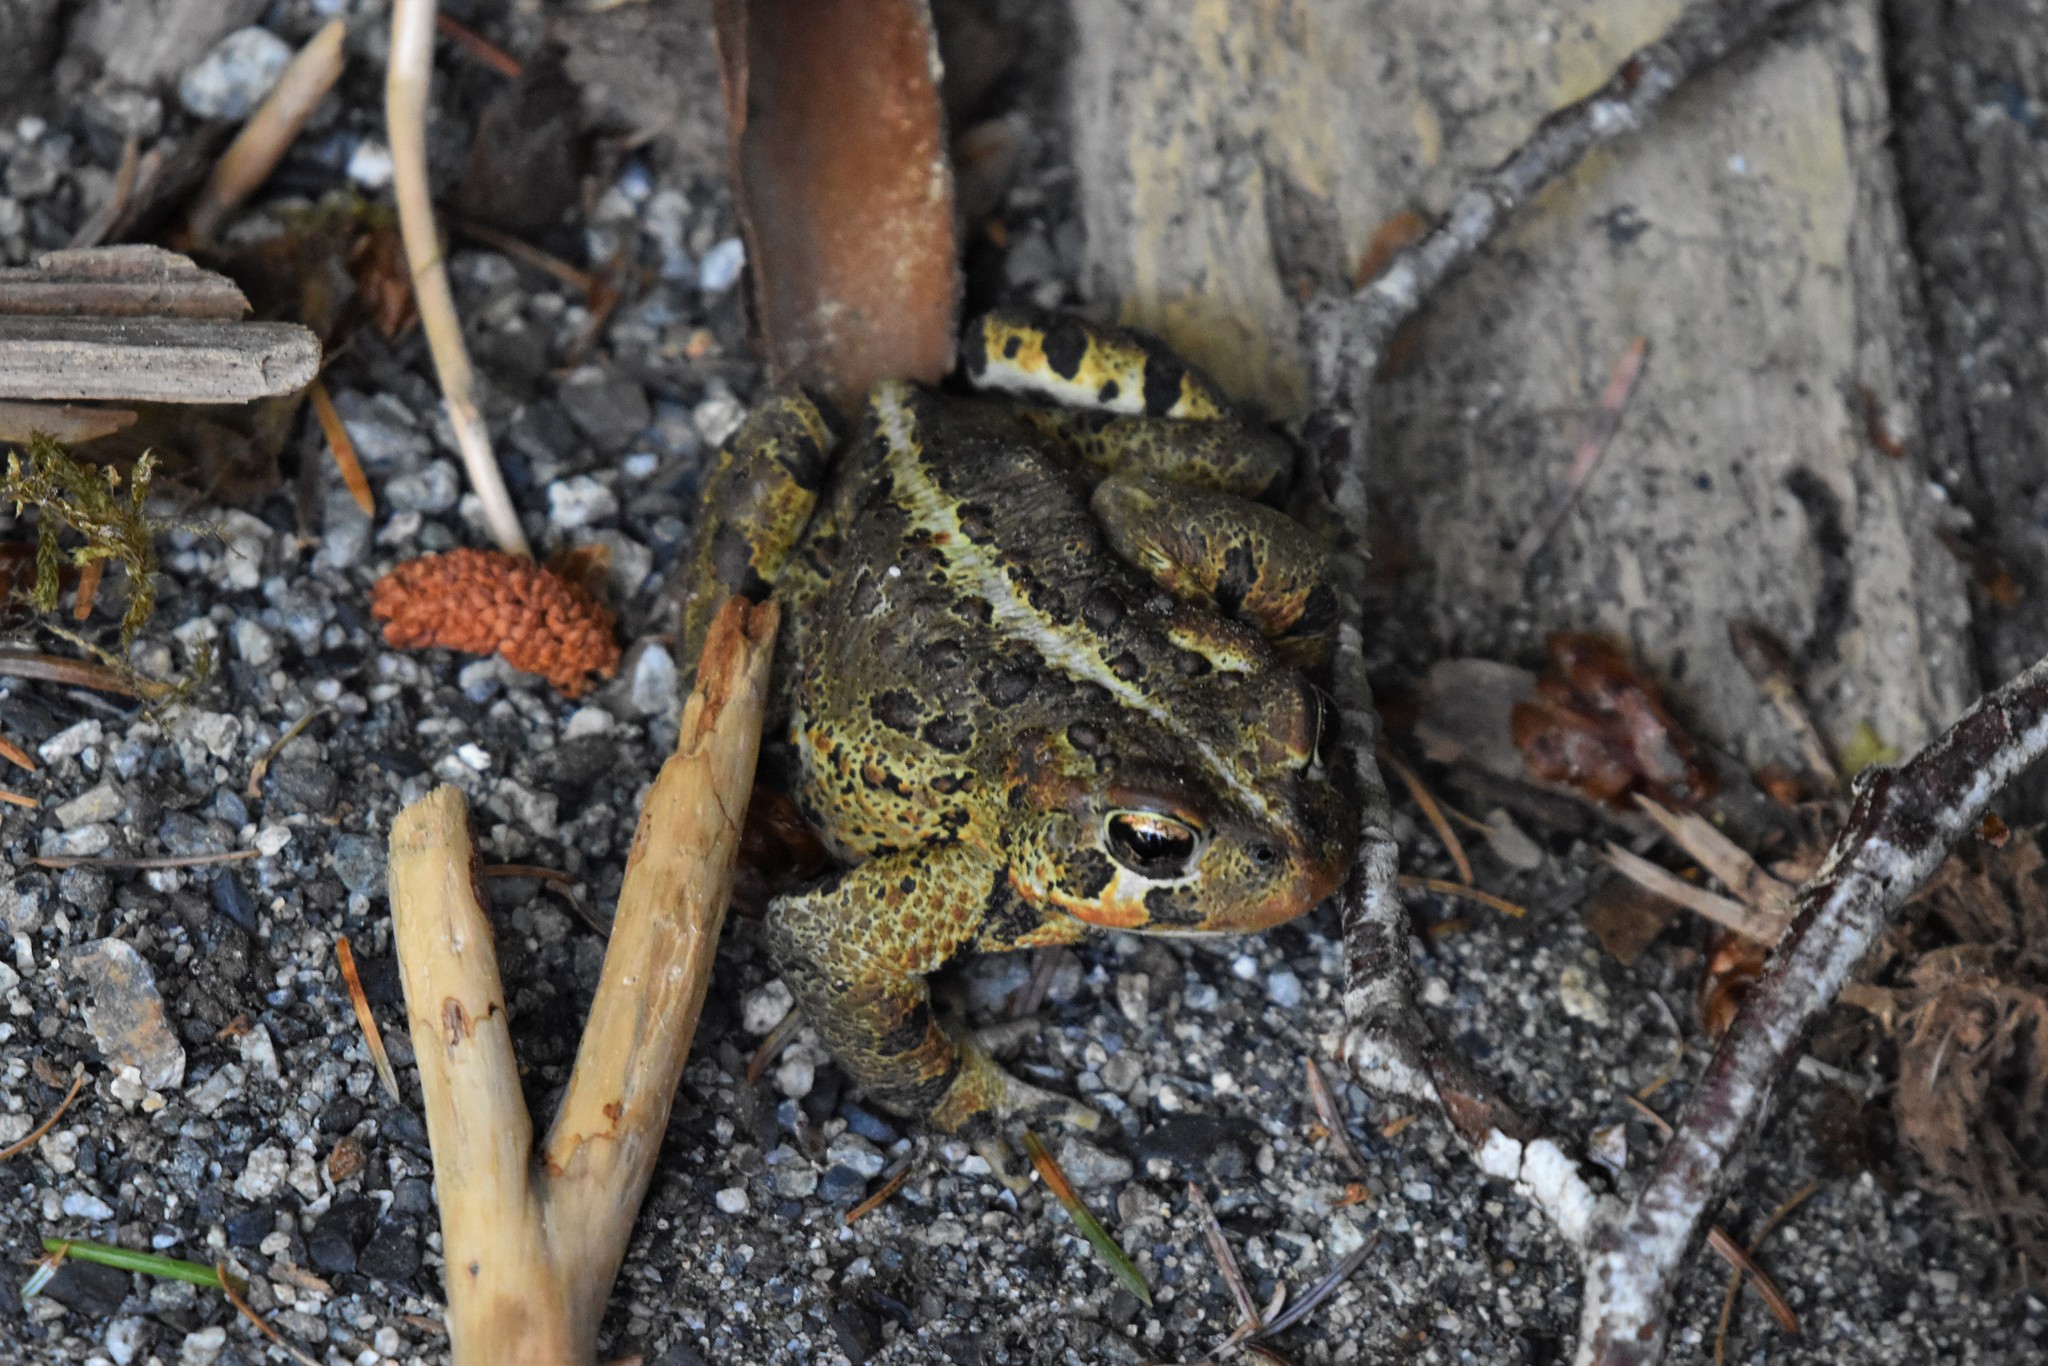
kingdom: Animalia
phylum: Chordata
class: Amphibia
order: Anura
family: Bufonidae
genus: Anaxyrus
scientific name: Anaxyrus boreas
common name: Western toad
